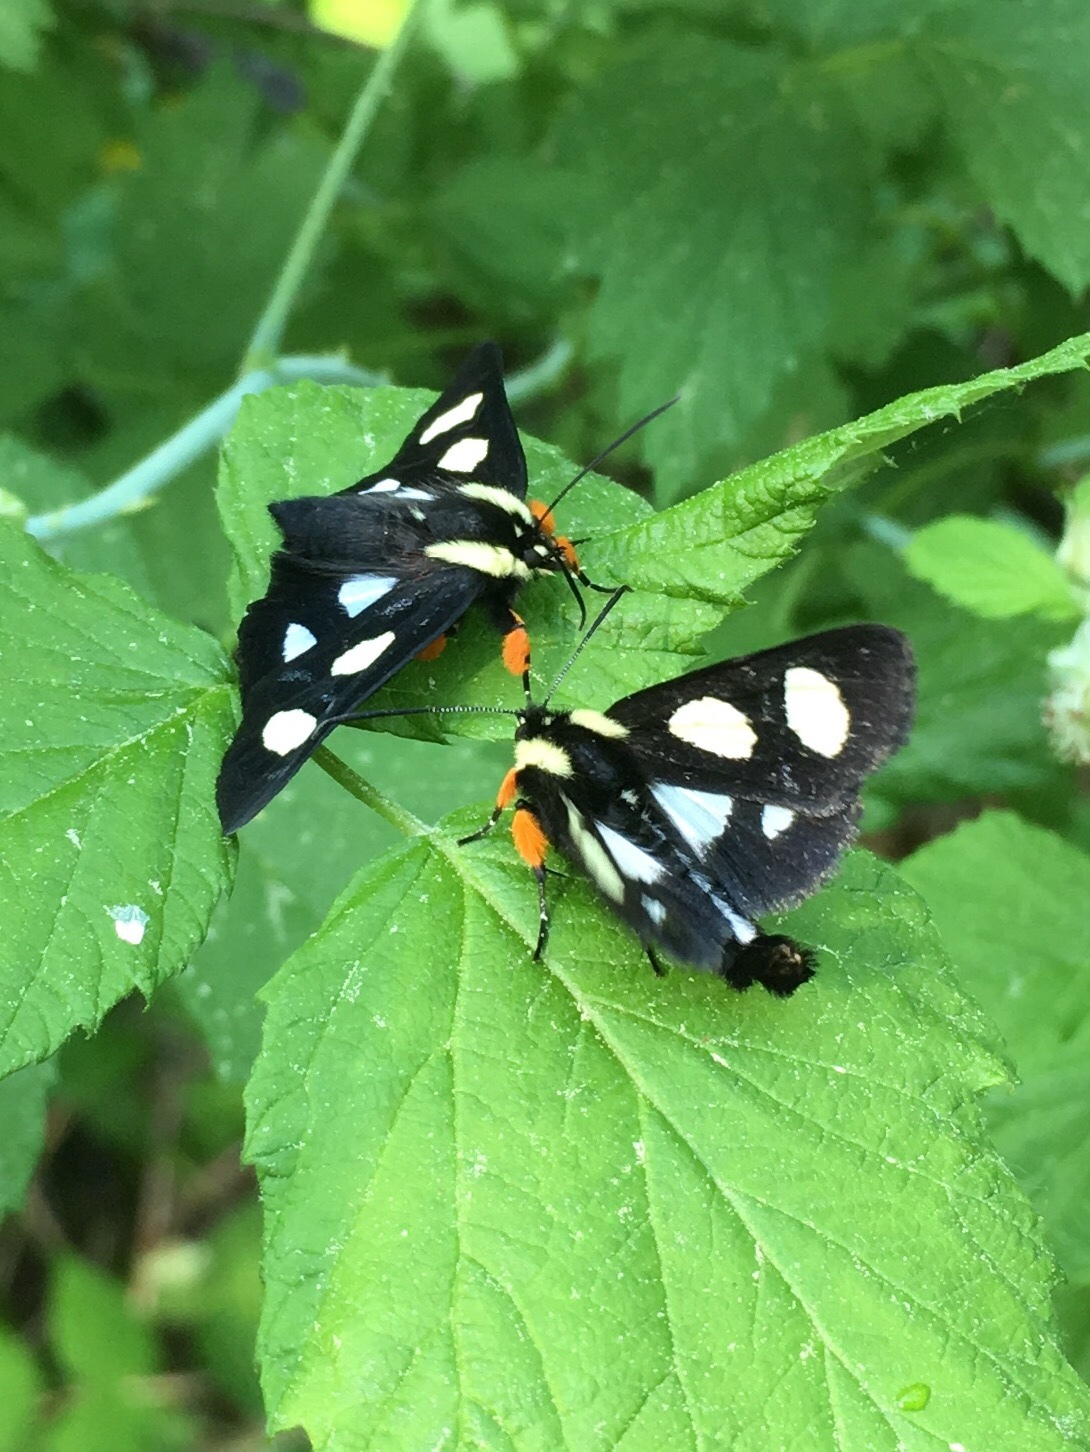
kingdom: Animalia
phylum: Arthropoda
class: Insecta
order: Lepidoptera
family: Noctuidae
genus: Alypia
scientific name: Alypia octomaculata
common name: Eight-spotted forester
